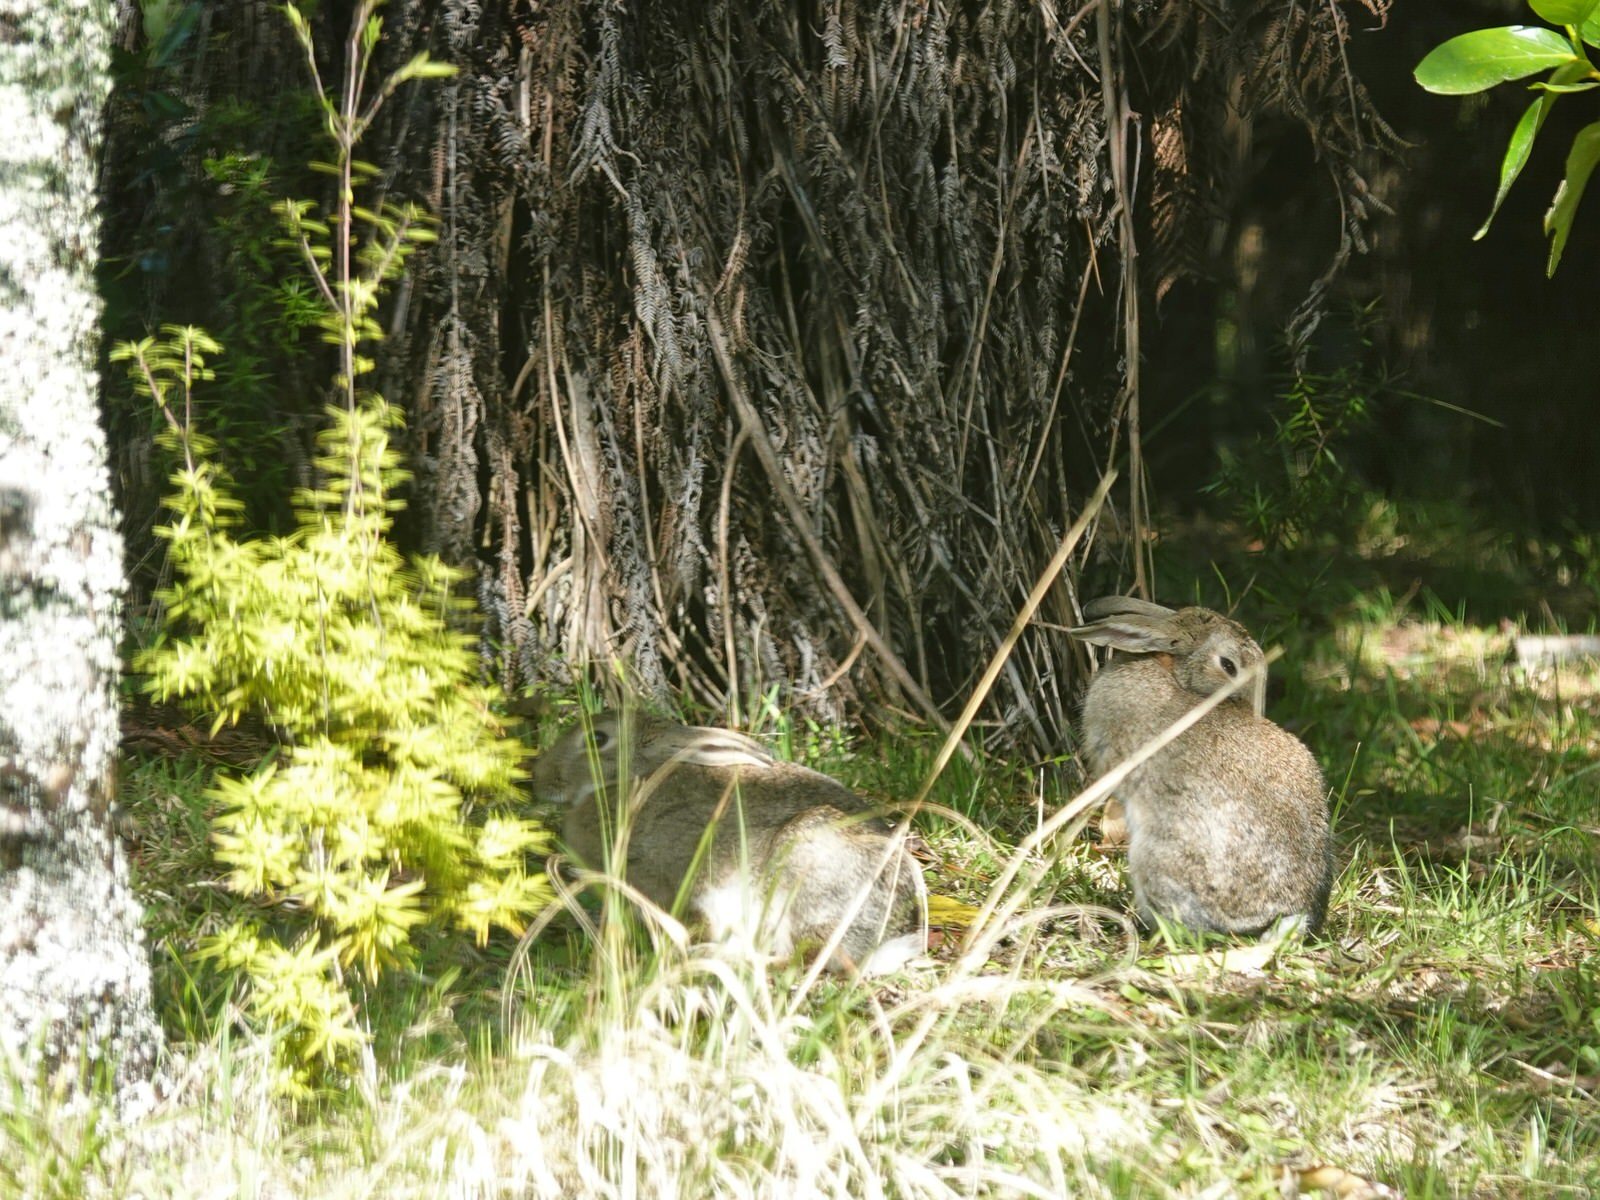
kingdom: Animalia
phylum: Chordata
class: Mammalia
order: Lagomorpha
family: Leporidae
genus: Oryctolagus
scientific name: Oryctolagus cuniculus
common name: European rabbit
